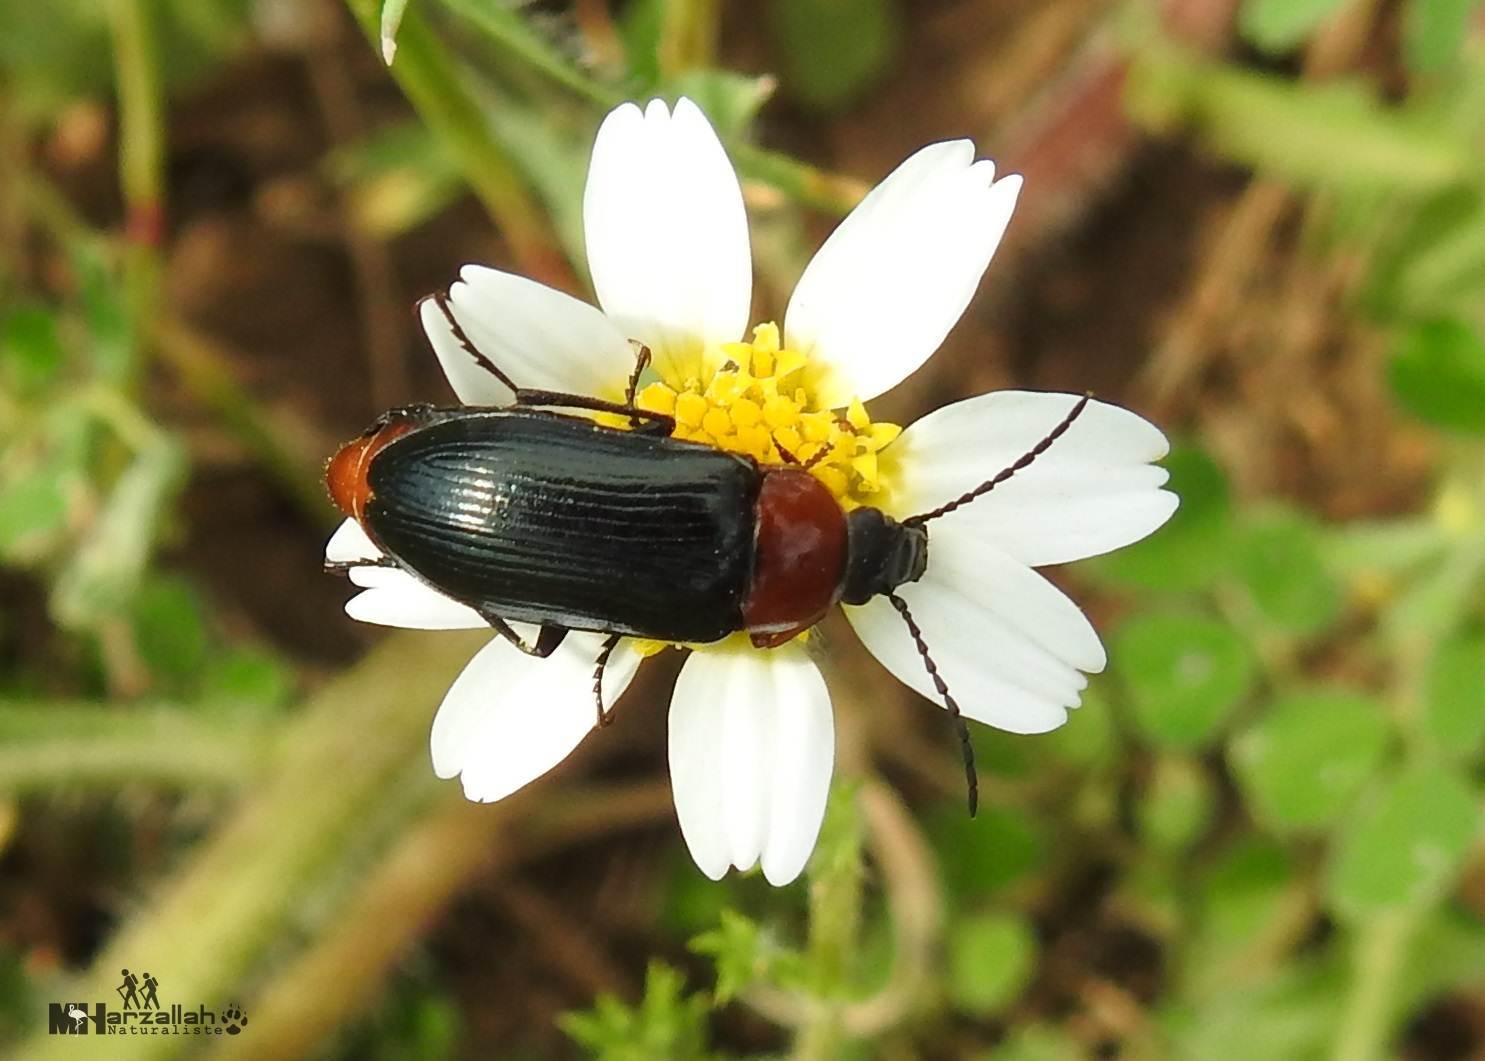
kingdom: Animalia
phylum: Arthropoda
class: Insecta
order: Coleoptera
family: Tenebrionidae
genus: Heliotaurus
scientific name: Heliotaurus ruficollis
